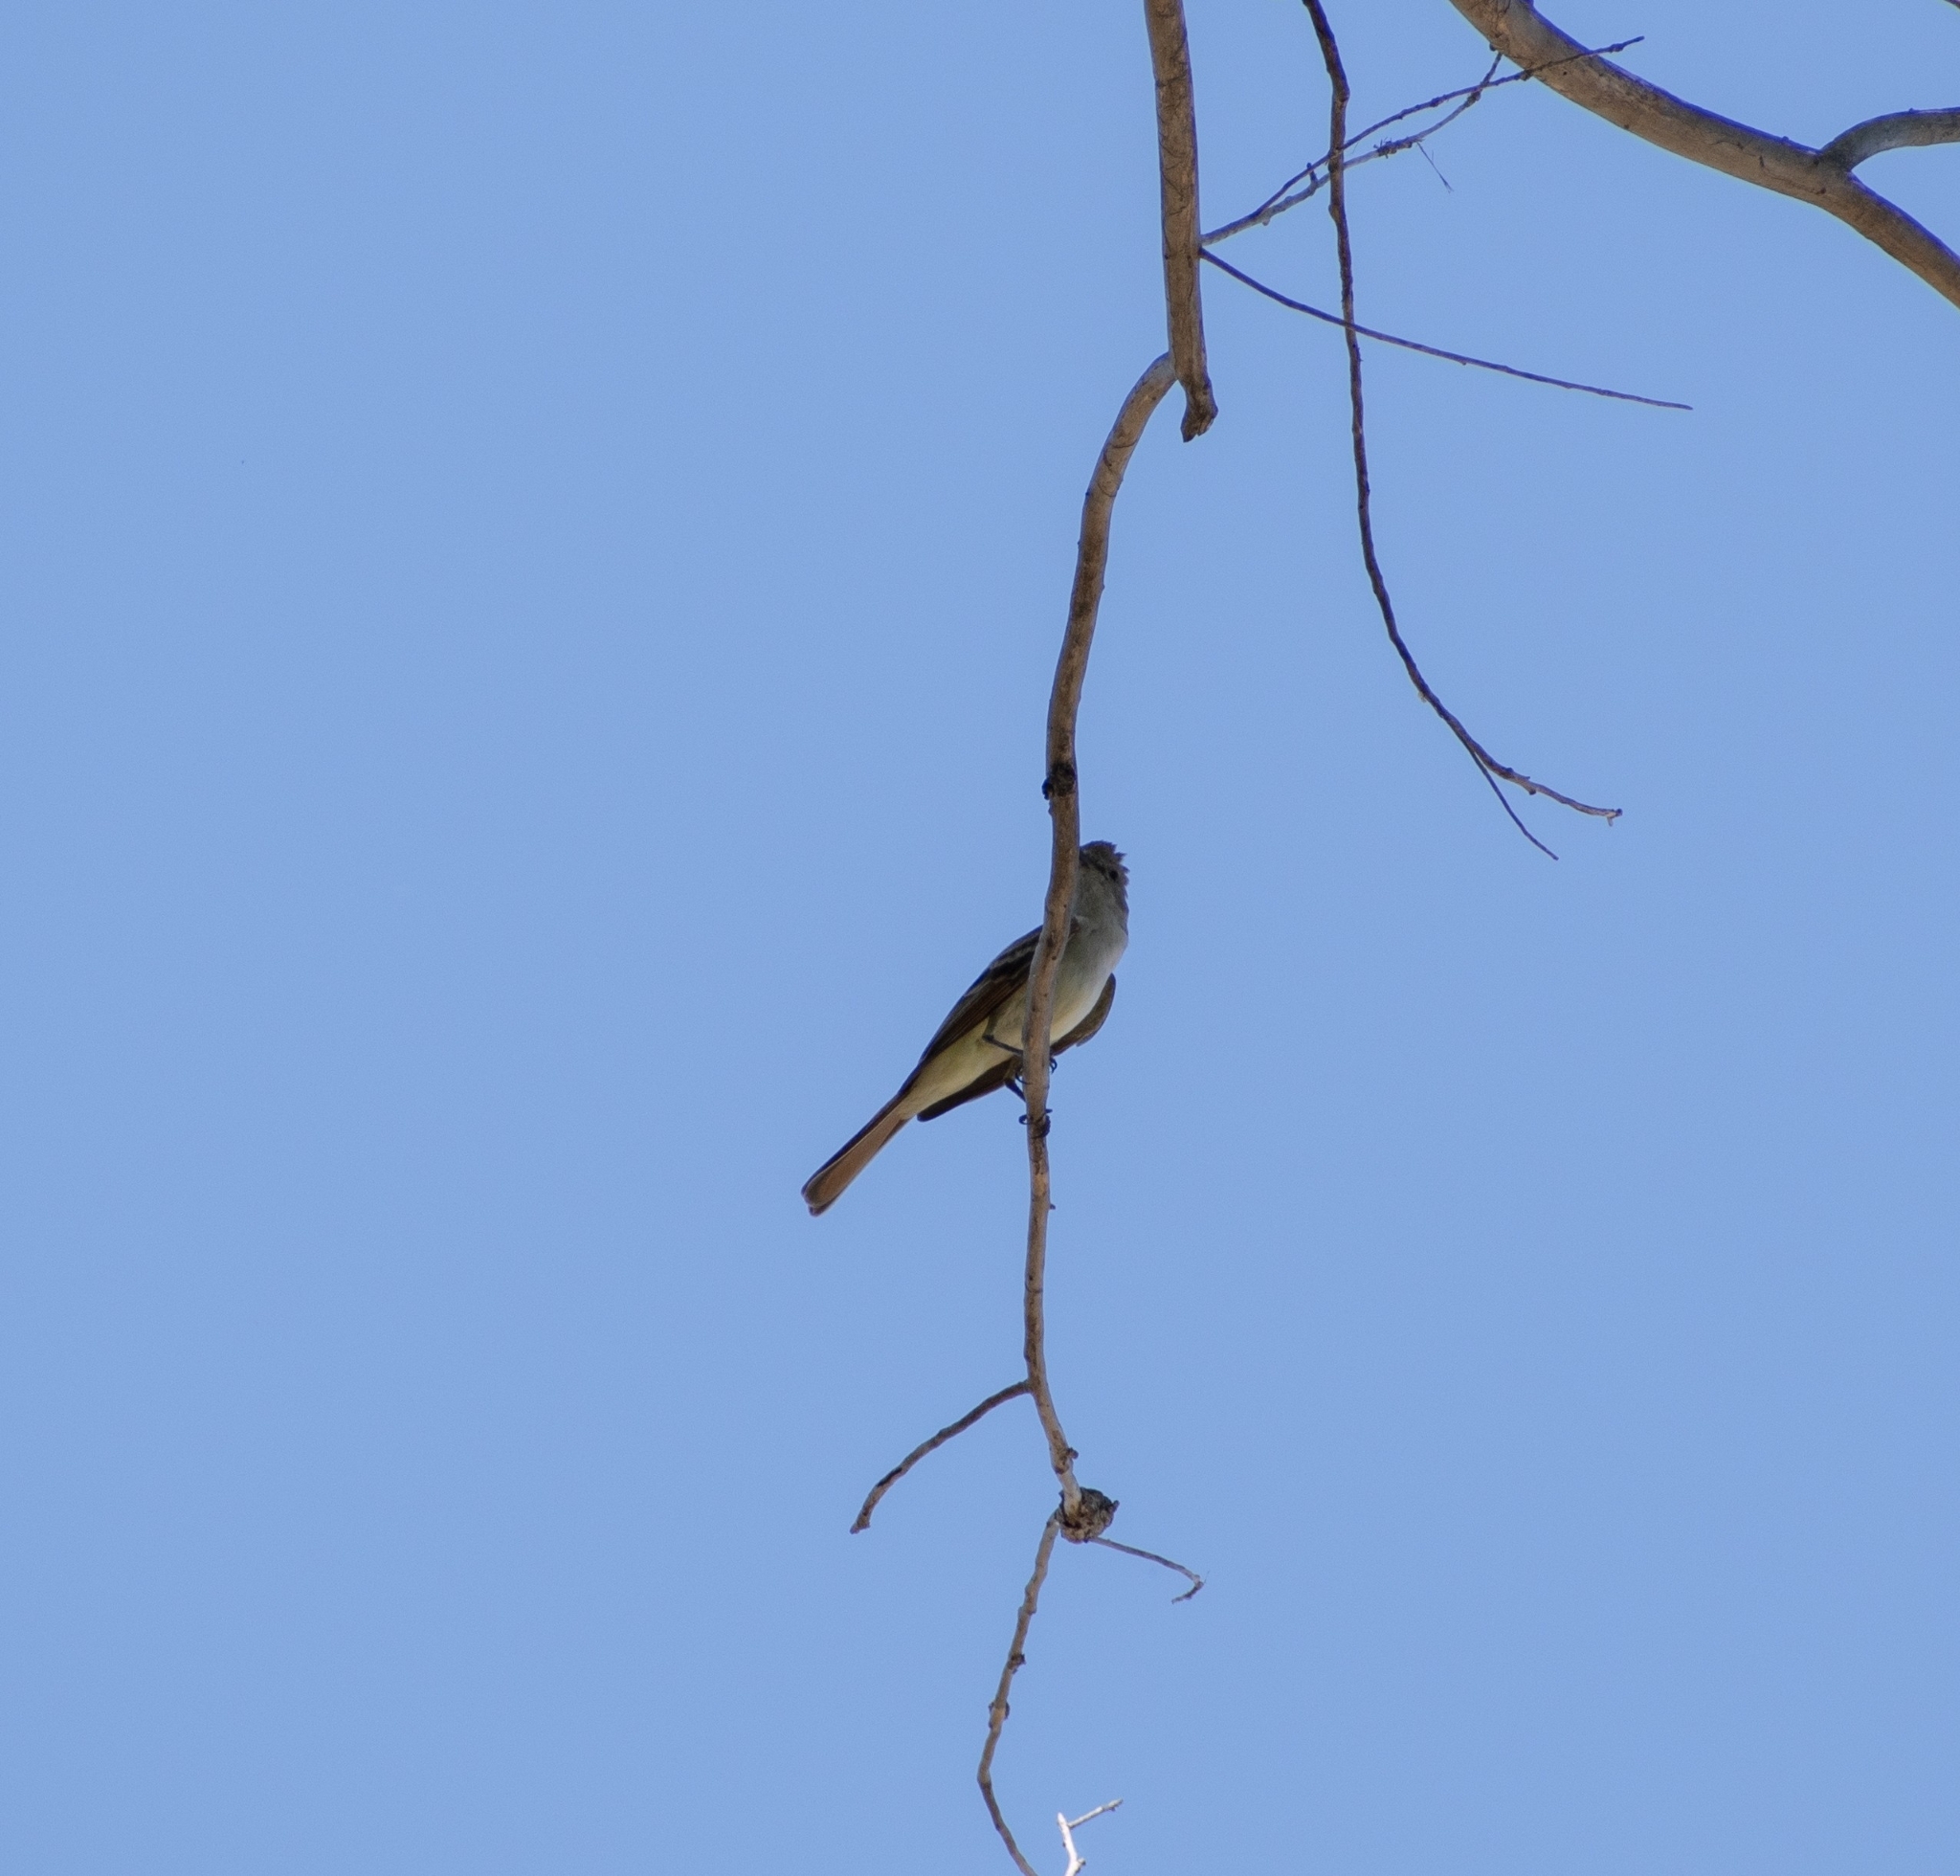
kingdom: Animalia
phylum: Chordata
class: Aves
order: Passeriformes
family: Tyrannidae
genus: Myiarchus
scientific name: Myiarchus cinerascens
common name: Ash-throated flycatcher
